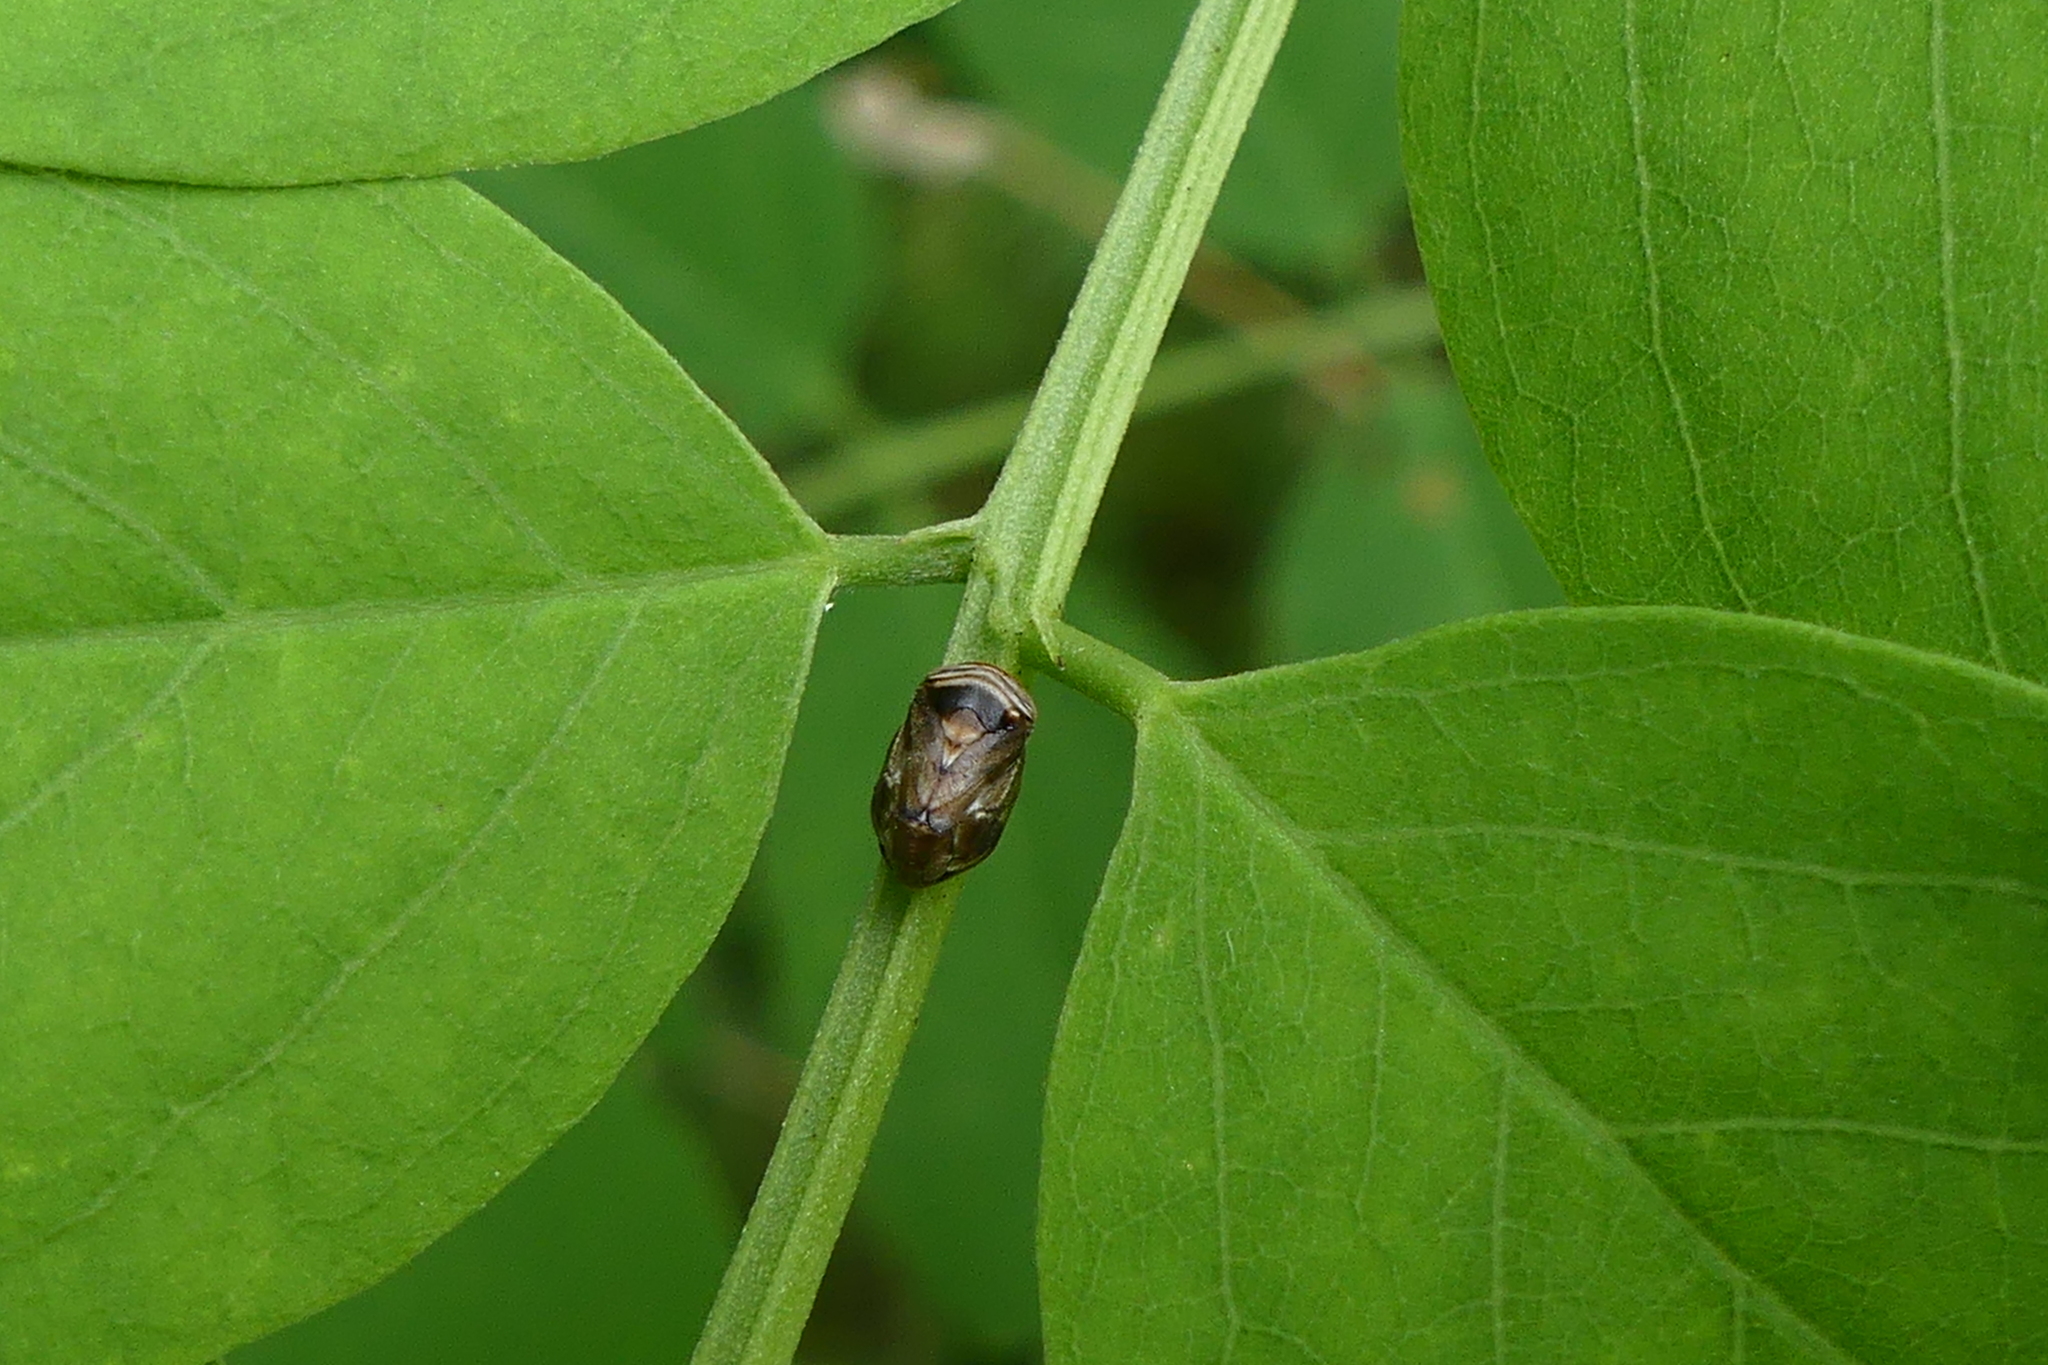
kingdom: Animalia
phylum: Arthropoda
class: Insecta
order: Hemiptera
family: Clastopteridae
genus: Clastoptera
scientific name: Clastoptera obtusa
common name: Alder spittlebug
